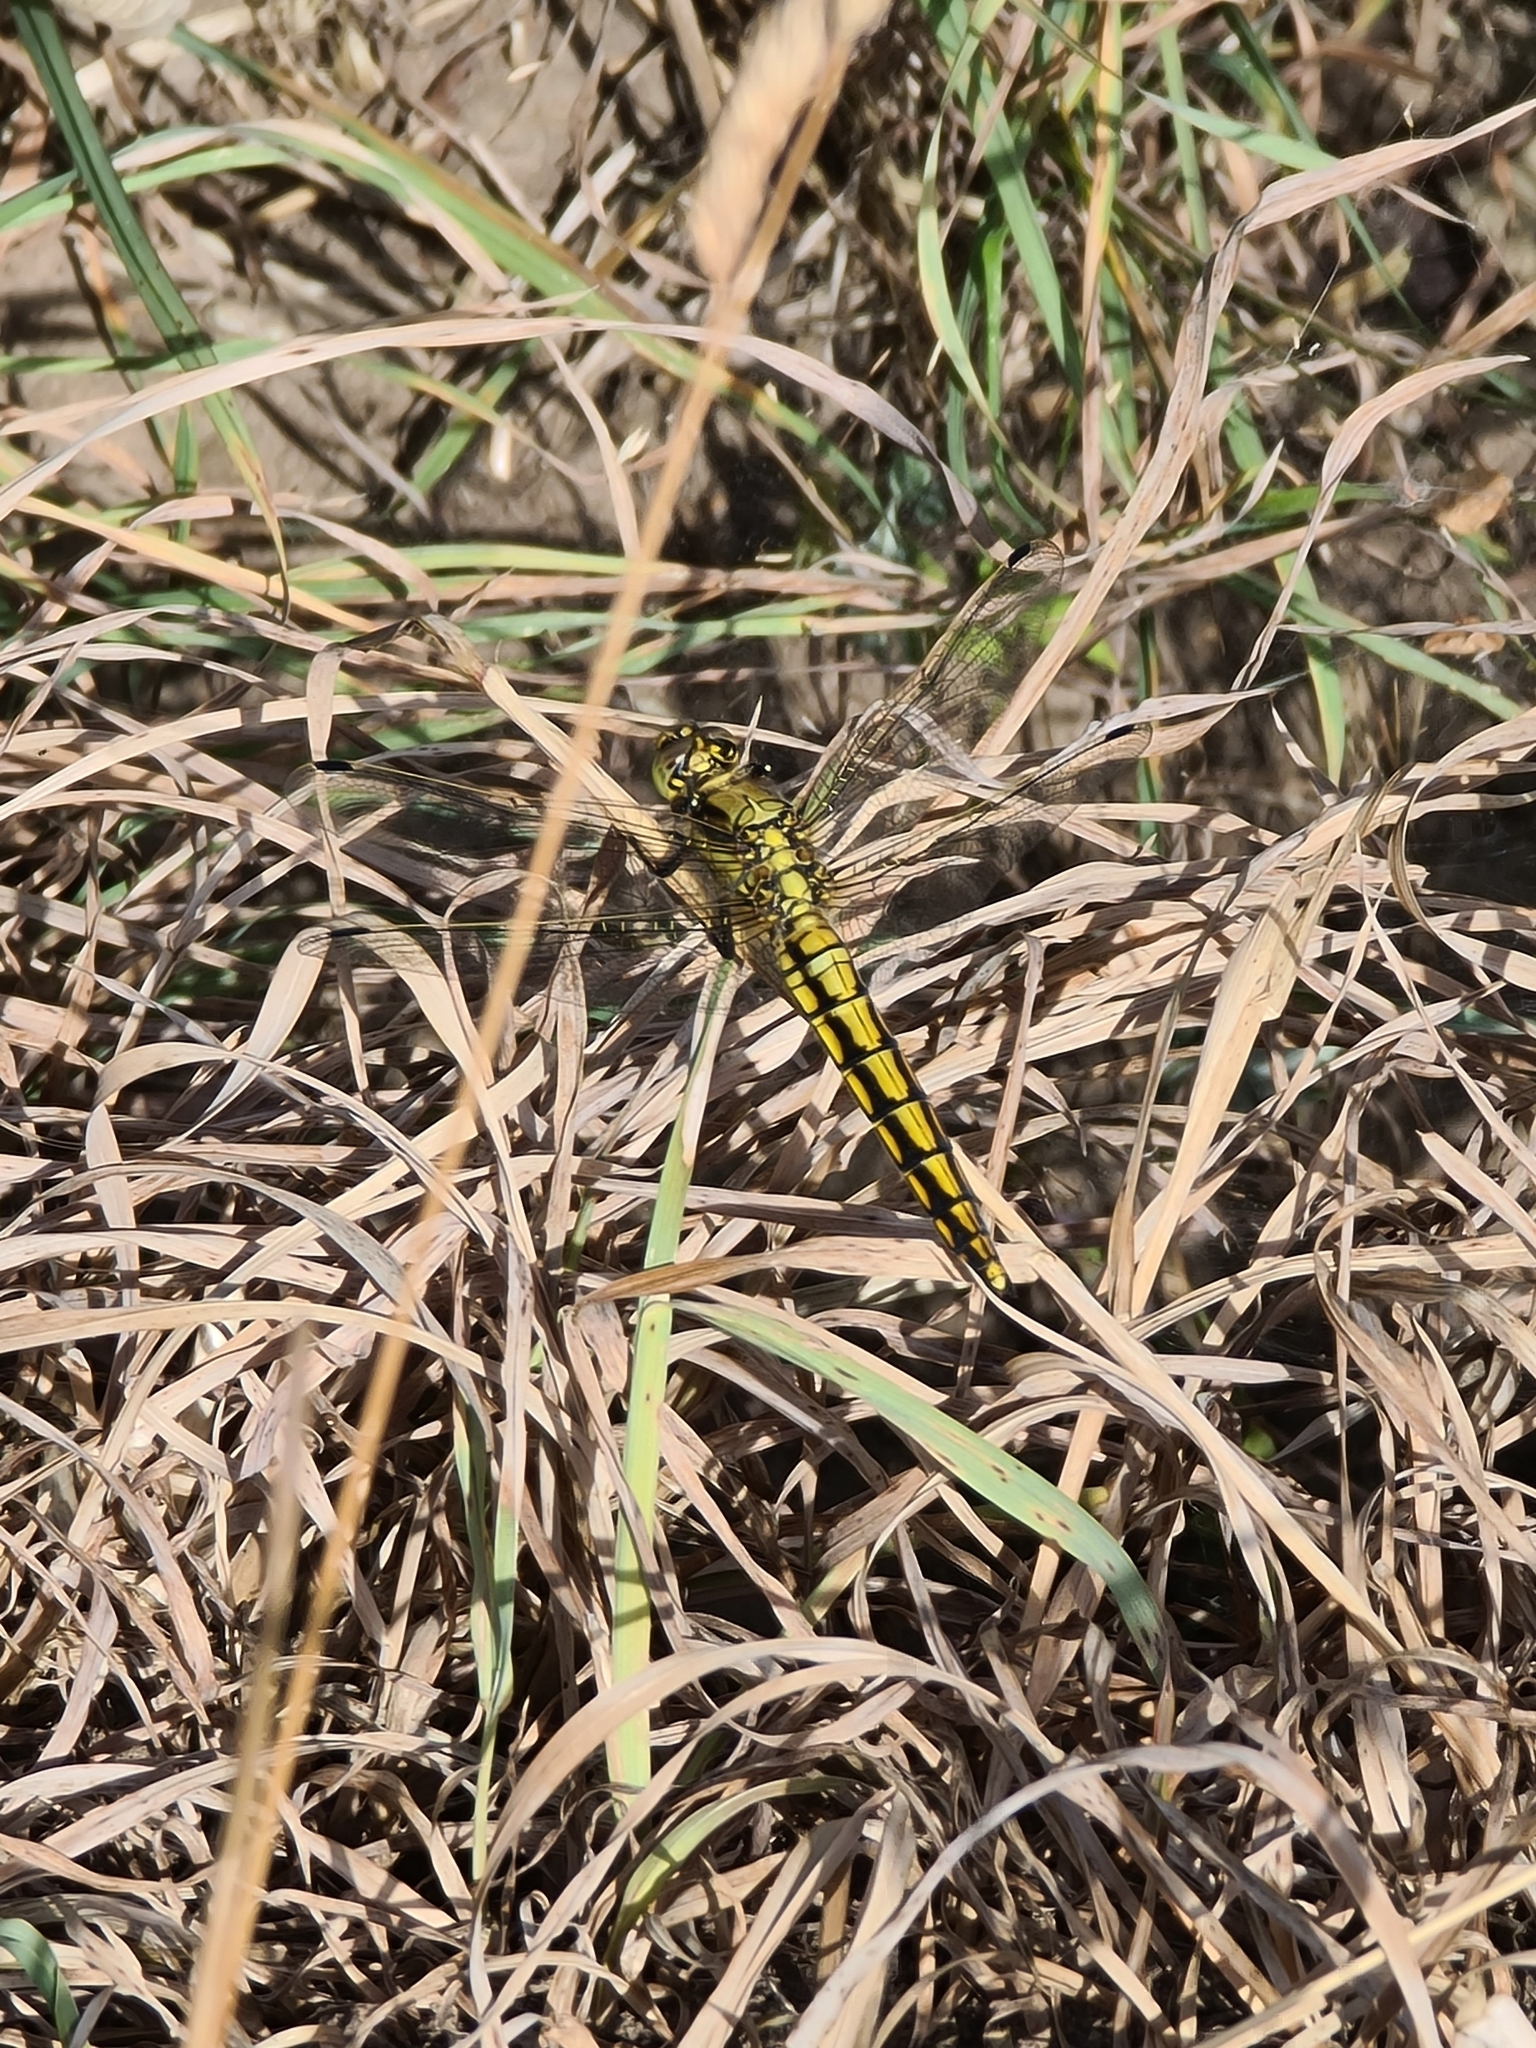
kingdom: Animalia
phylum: Arthropoda
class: Insecta
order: Odonata
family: Libellulidae
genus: Orthetrum
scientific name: Orthetrum cancellatum
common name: Black-tailed skimmer
